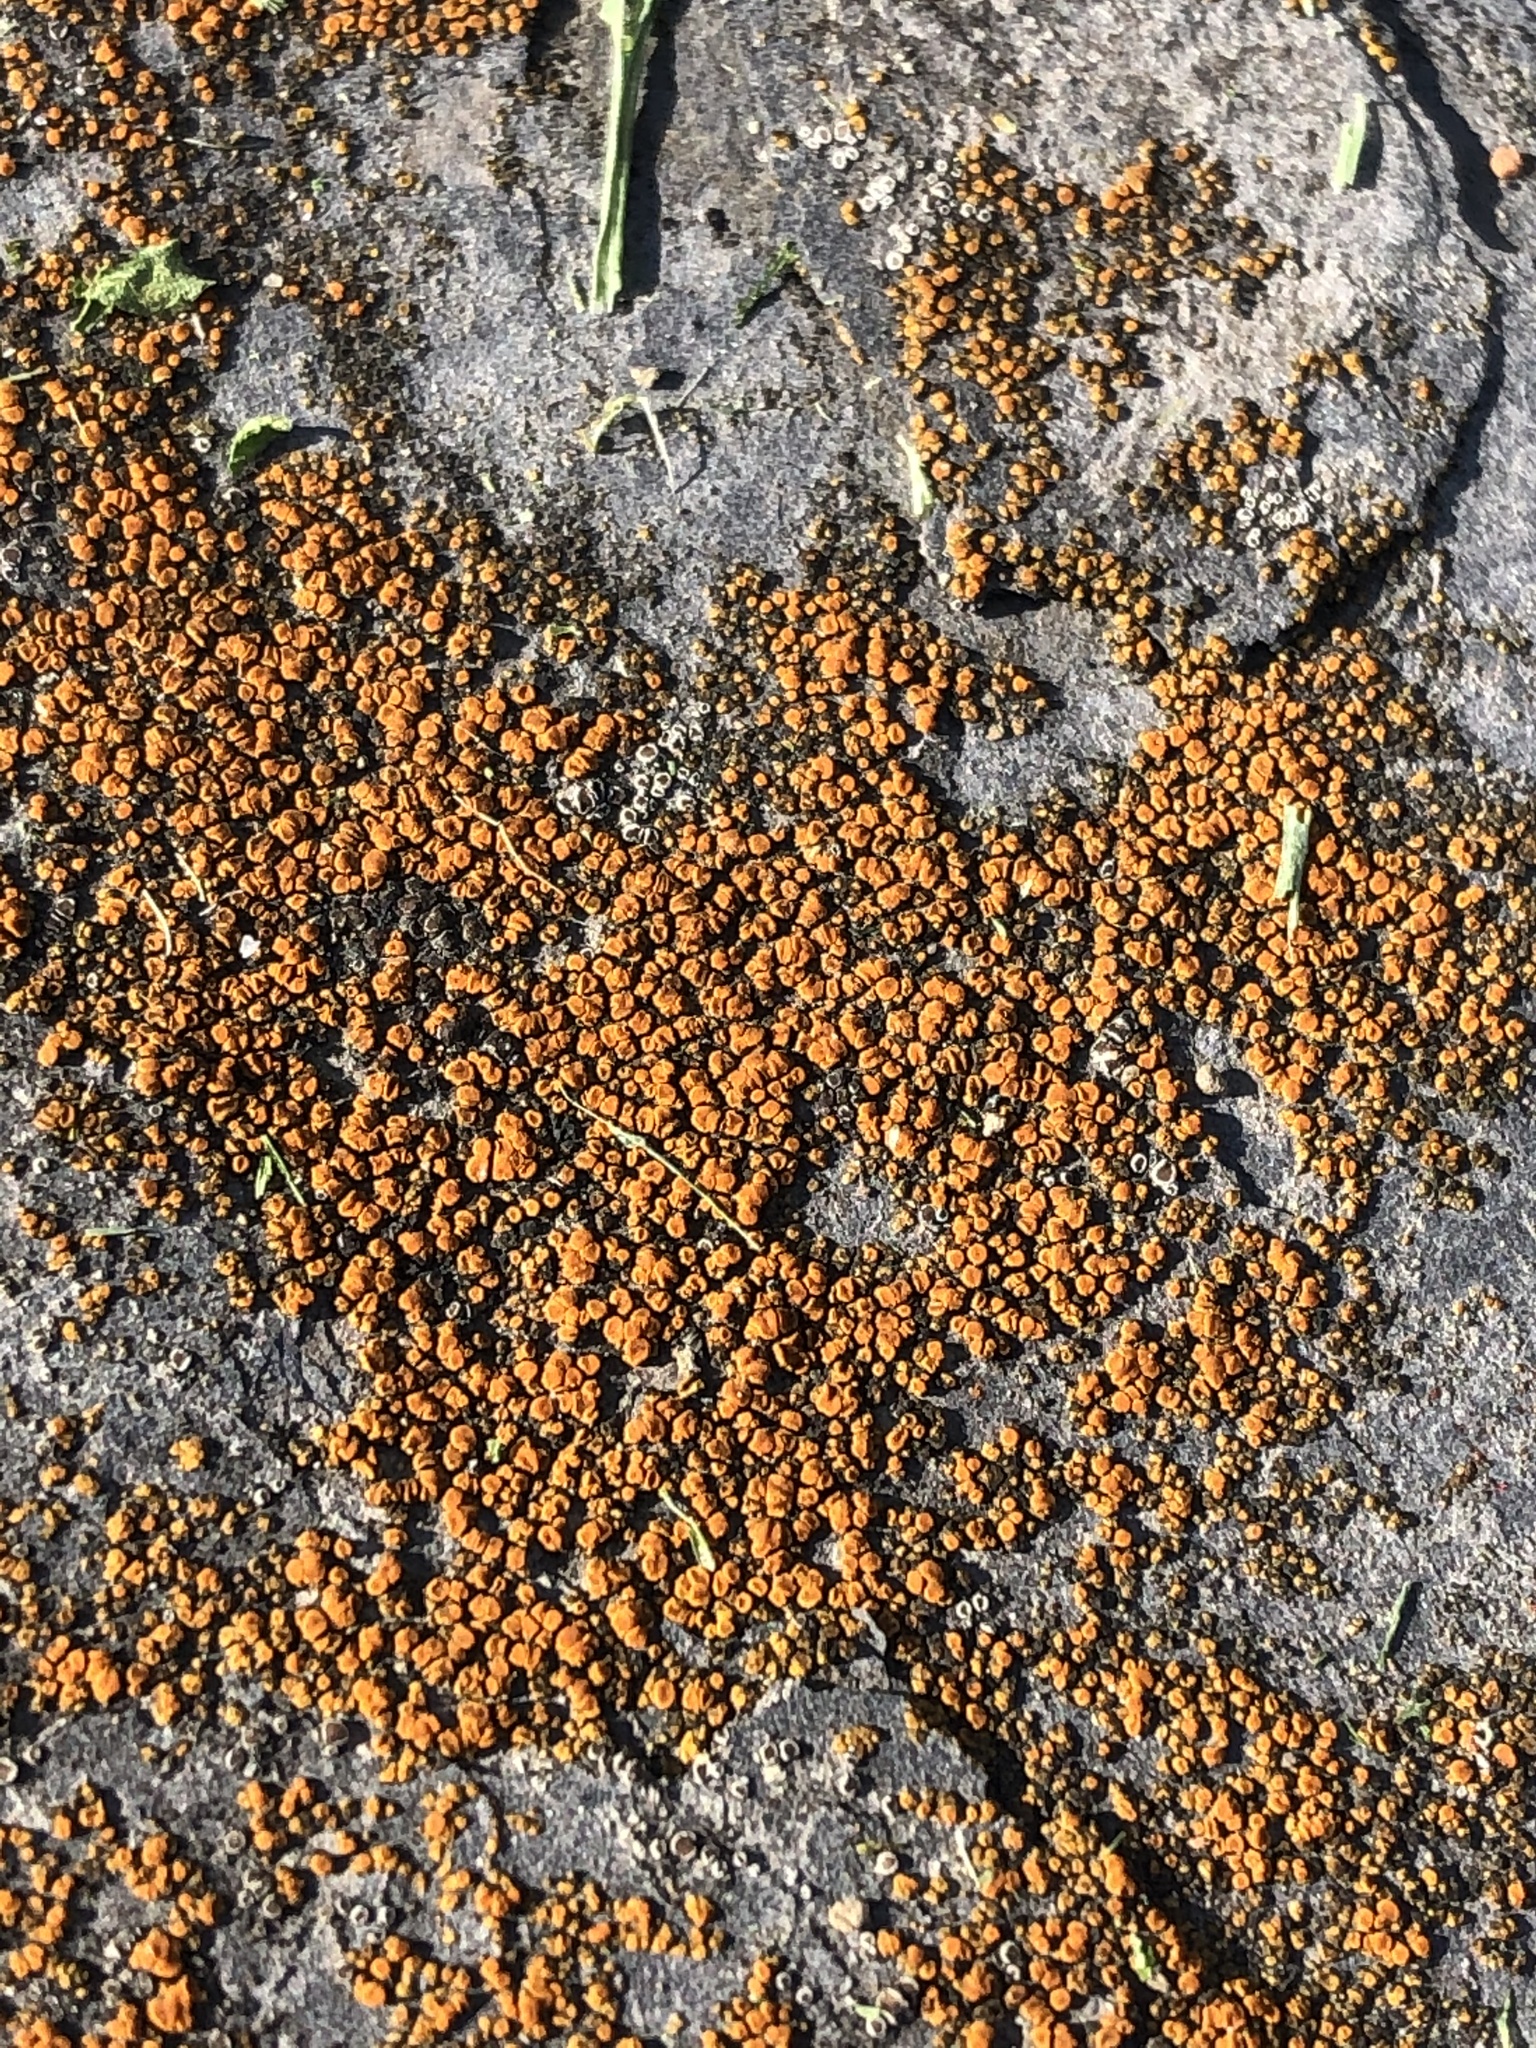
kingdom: Fungi
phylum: Ascomycota
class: Lecanoromycetes
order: Teloschistales
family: Teloschistaceae
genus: Xanthocarpia
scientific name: Xanthocarpia feracissima
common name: Sidewalk firedot
